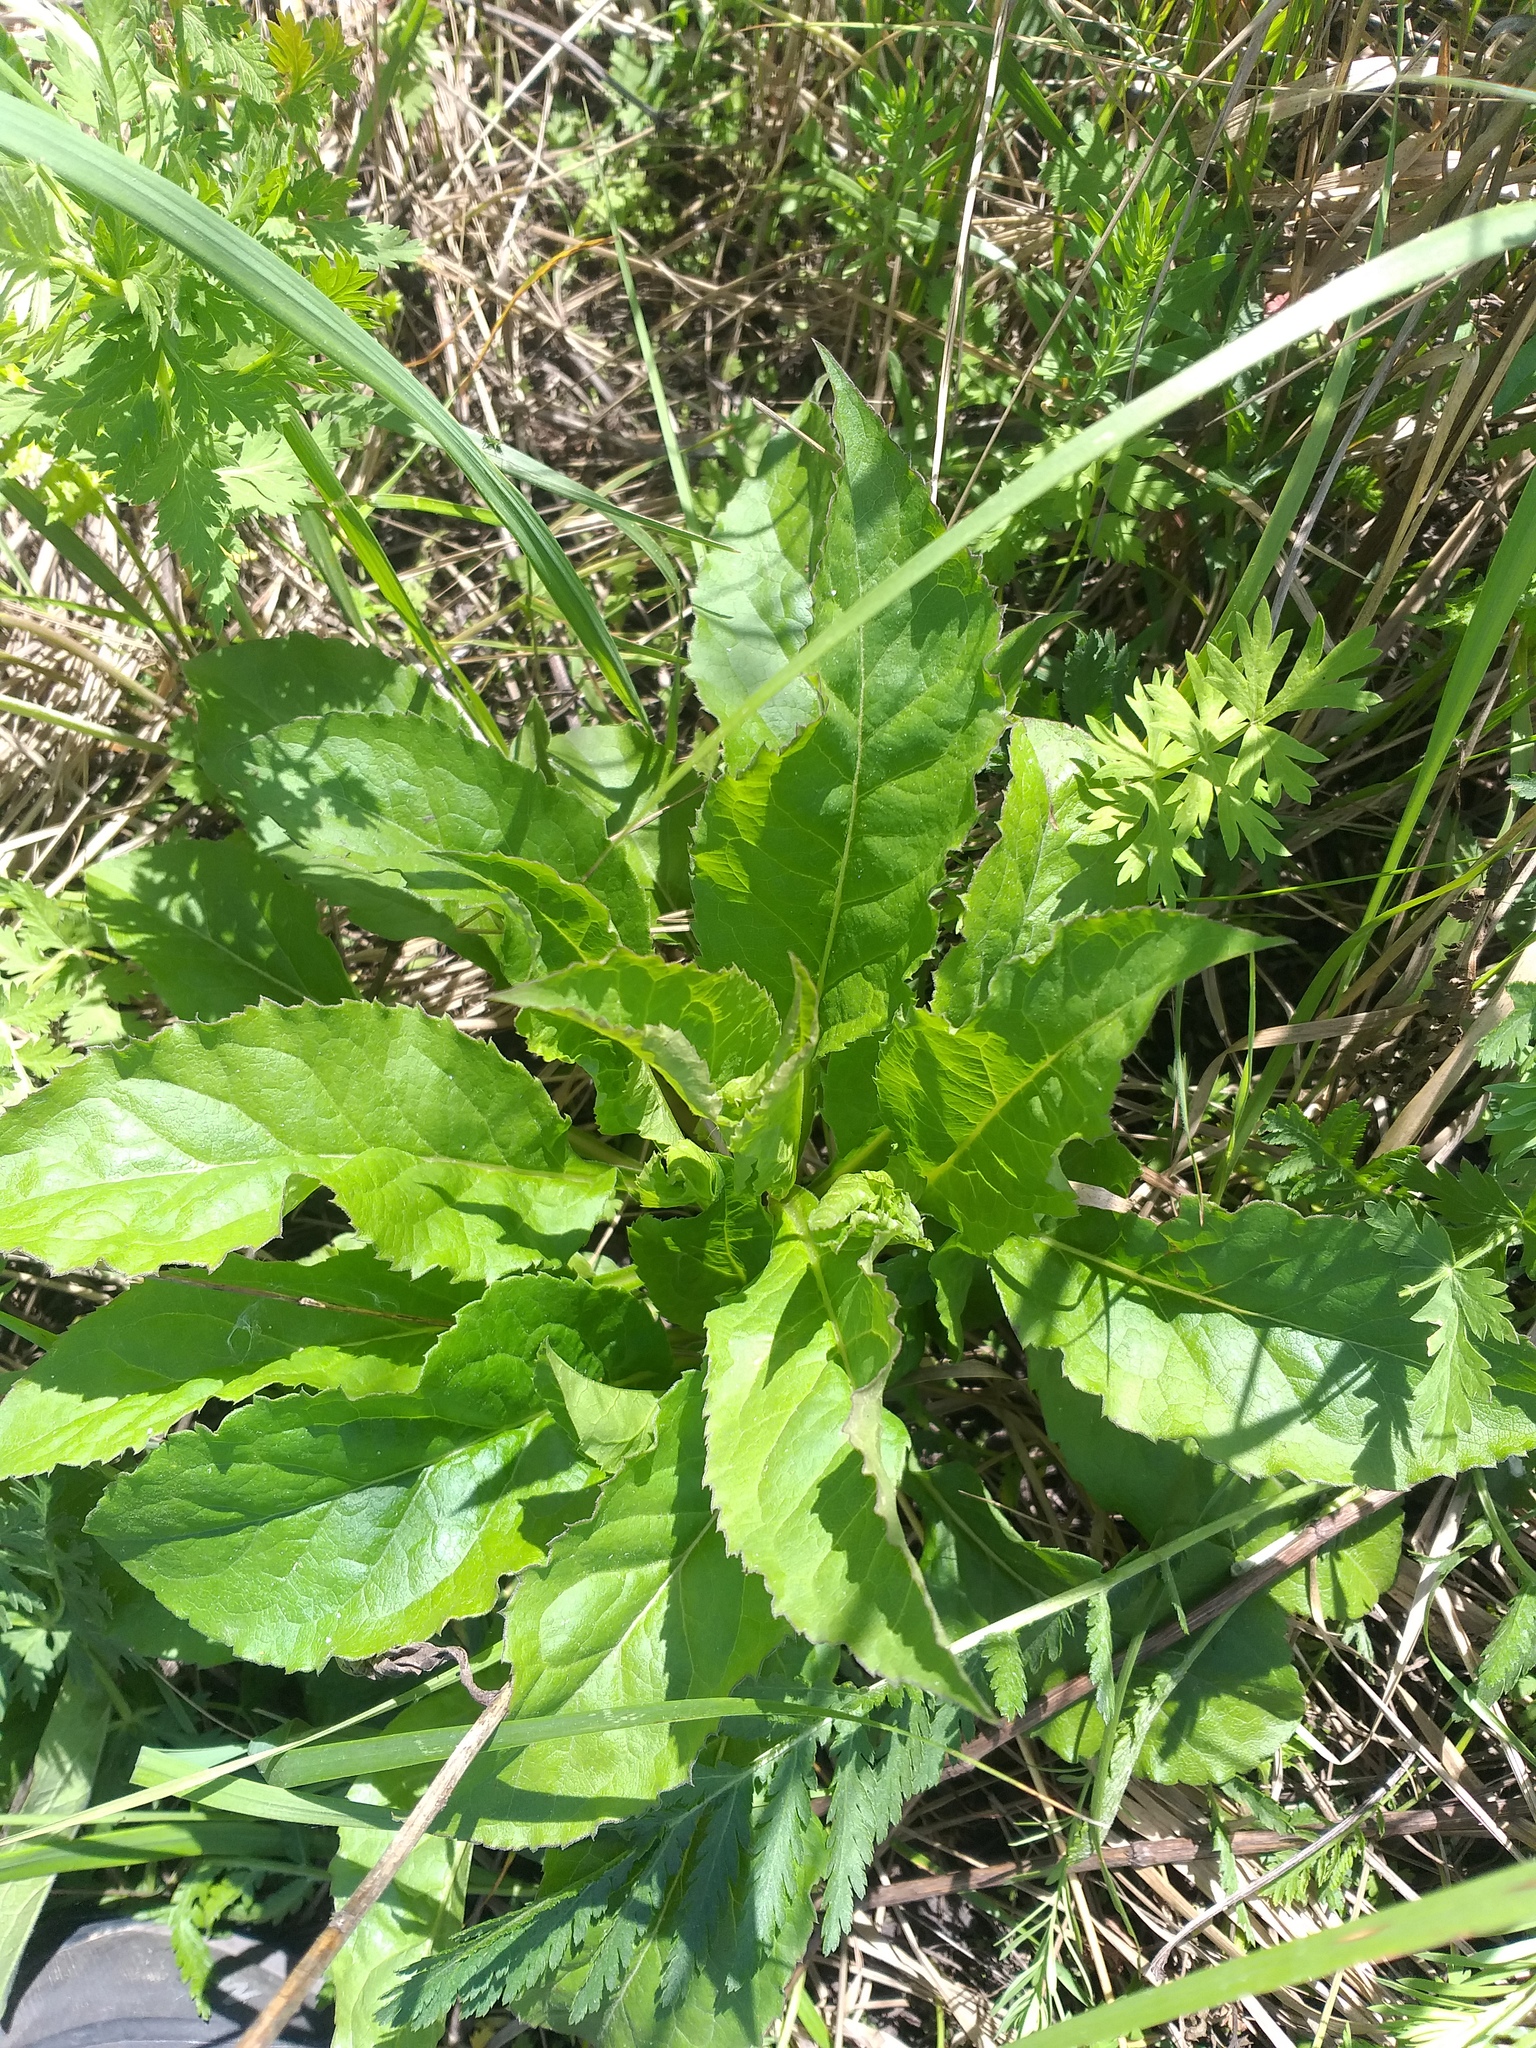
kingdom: Plantae
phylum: Tracheophyta
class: Magnoliopsida
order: Asterales
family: Asteraceae
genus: Solidago
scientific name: Solidago virgaurea
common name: Goldenrod
